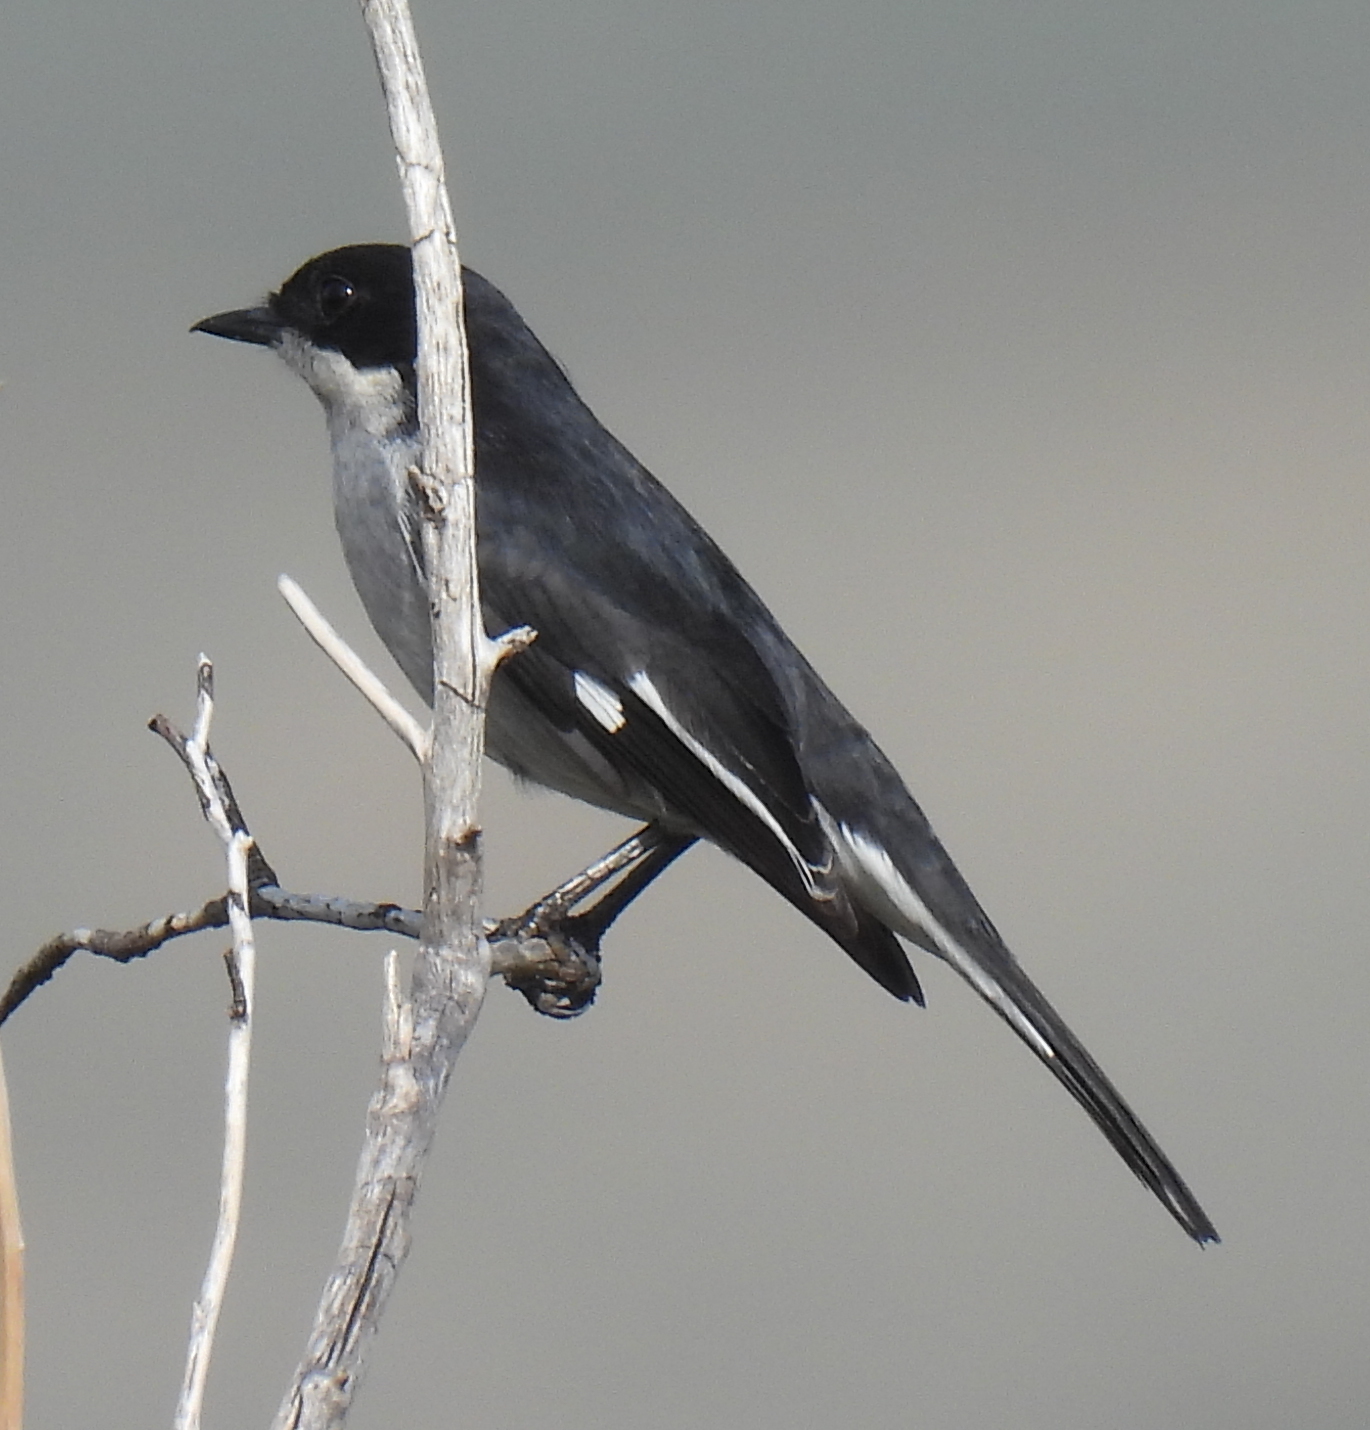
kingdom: Animalia
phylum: Chordata
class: Aves
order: Passeriformes
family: Muscicapidae
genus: Sigelus
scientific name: Sigelus silens
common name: Fiscal flycatcher
